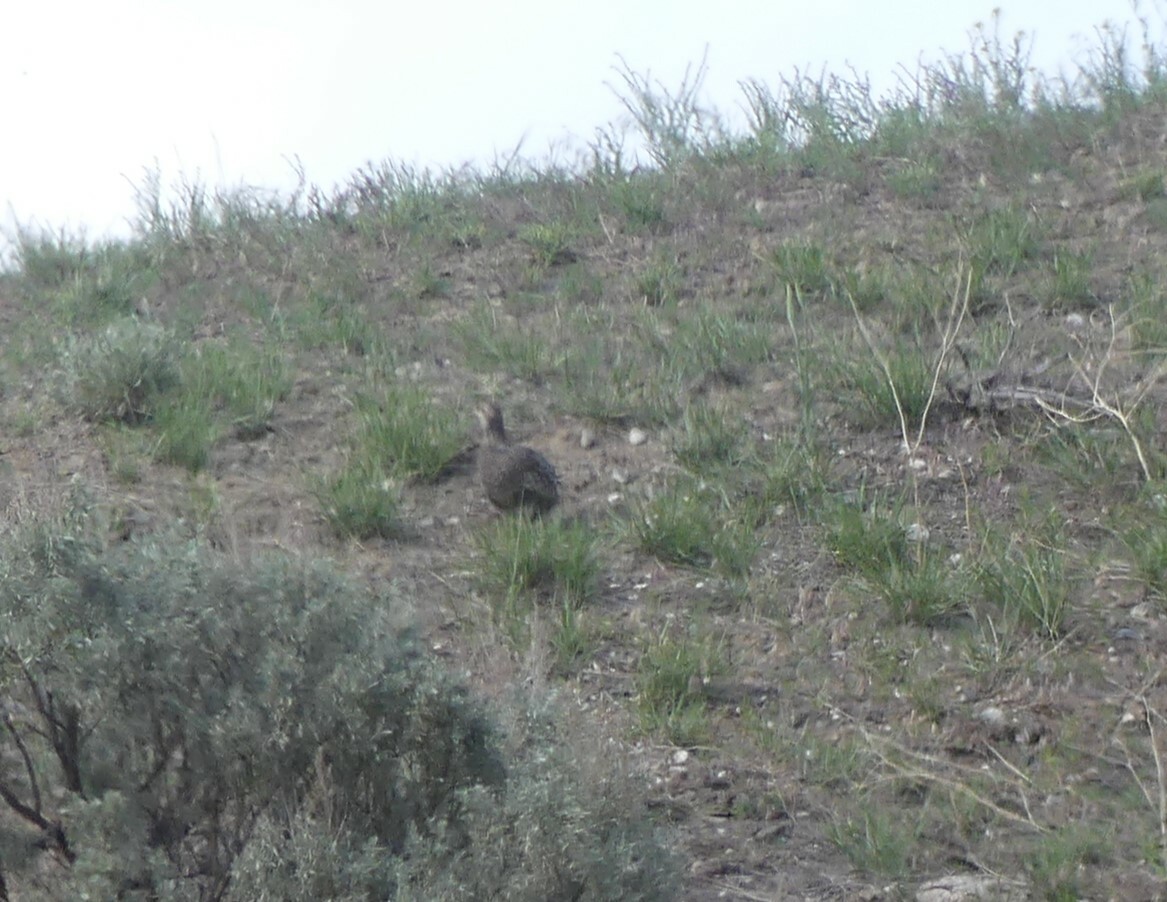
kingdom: Animalia
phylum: Chordata
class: Aves
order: Galliformes
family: Phasianidae
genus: Dendragapus
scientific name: Dendragapus obscurus
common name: Dusky grouse
